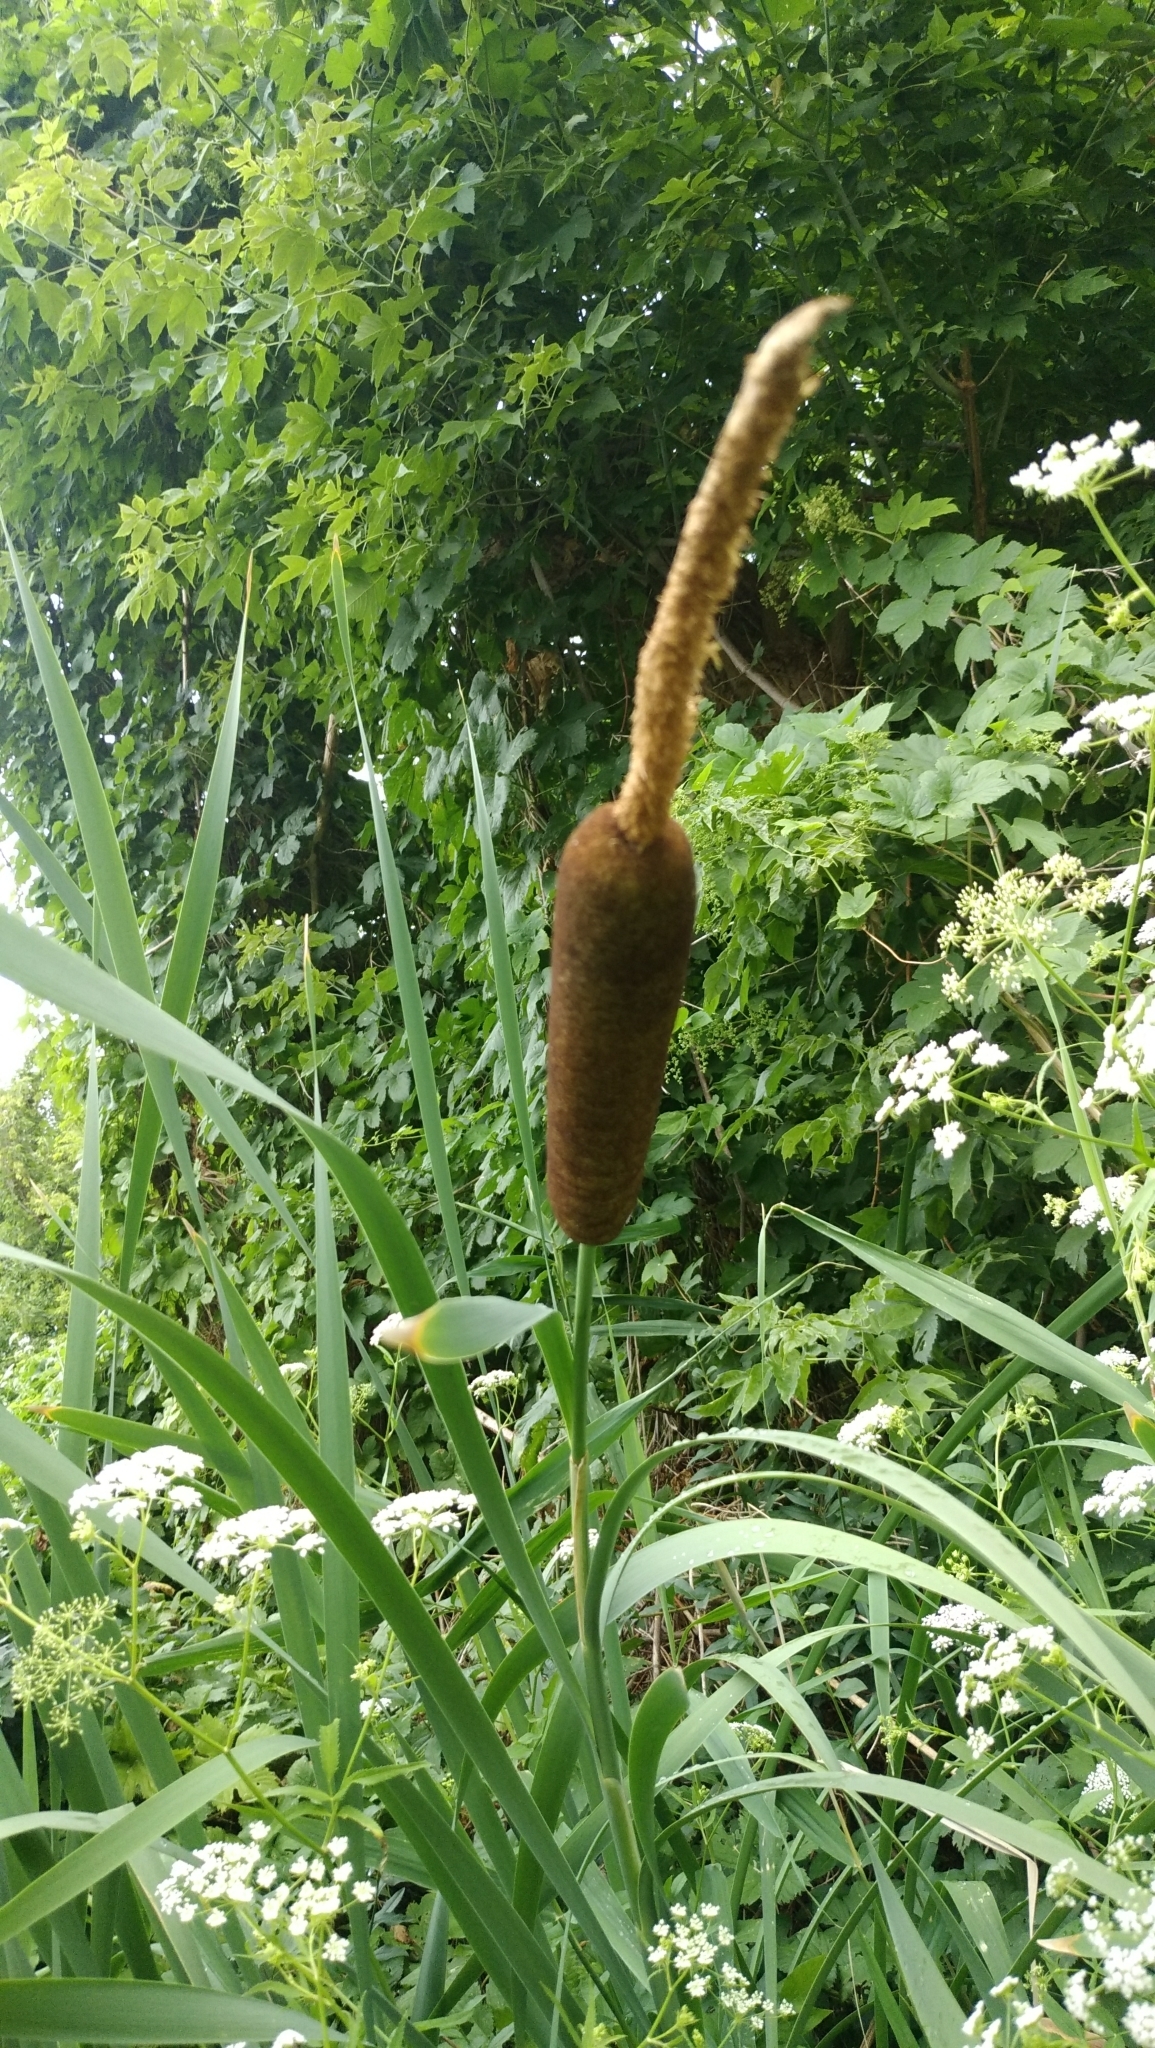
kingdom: Plantae
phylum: Tracheophyta
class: Liliopsida
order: Poales
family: Typhaceae
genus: Typha
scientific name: Typha latifolia
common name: Broadleaf cattail
